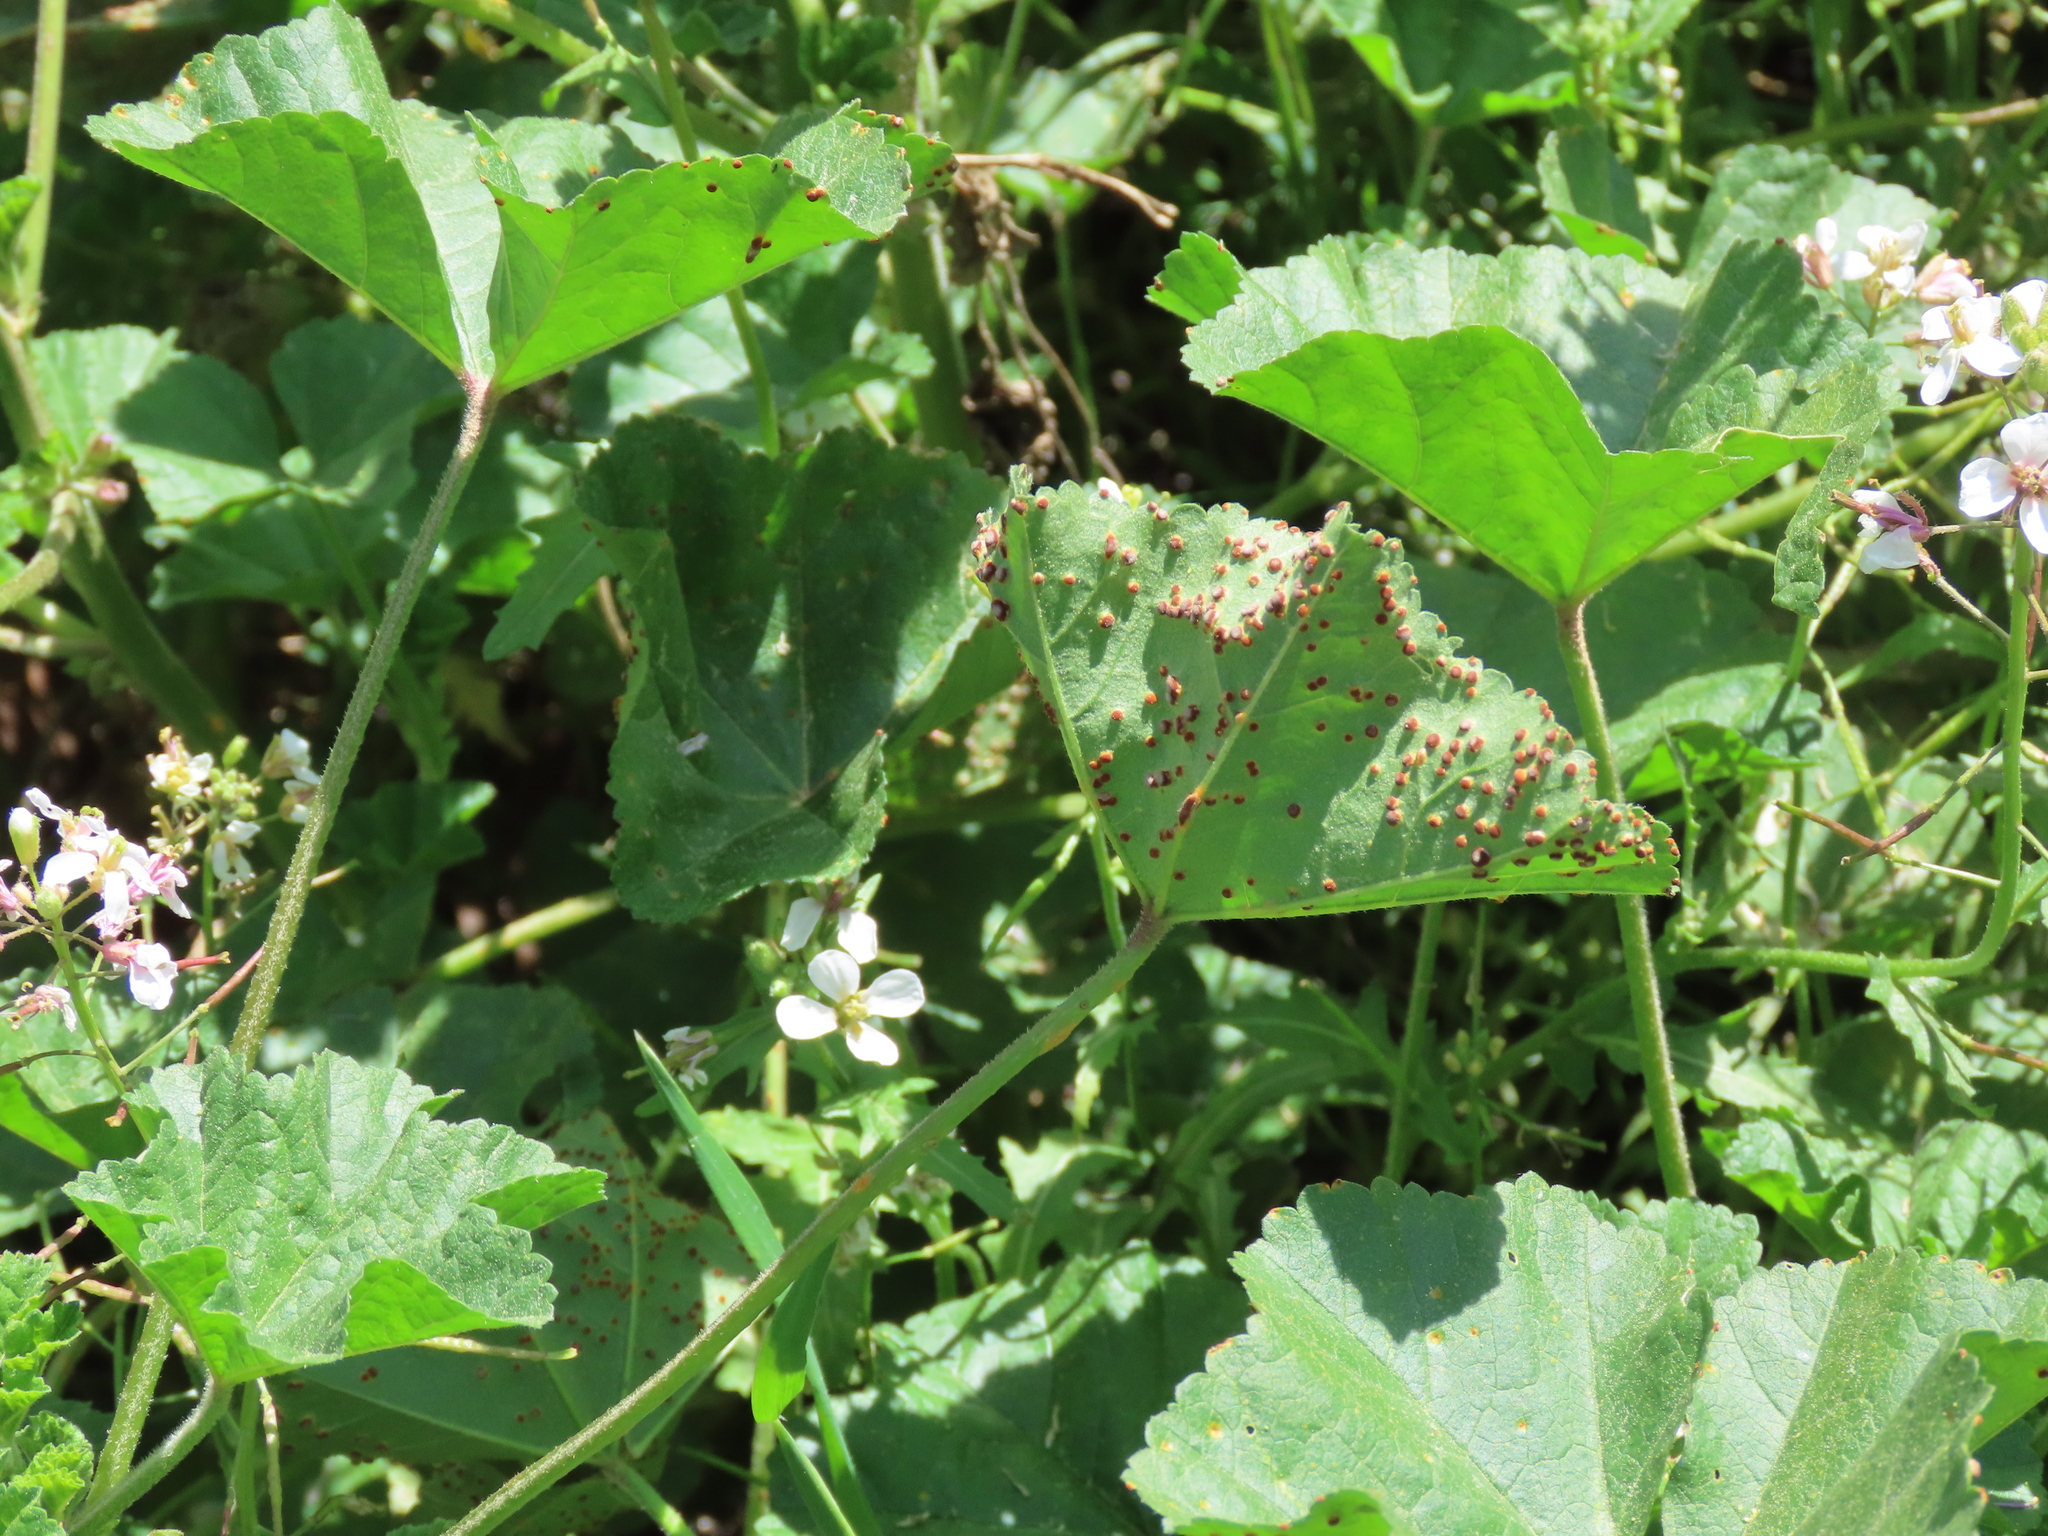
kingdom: Fungi
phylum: Basidiomycota
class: Pucciniomycetes
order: Pucciniales
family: Pucciniaceae
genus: Puccinia
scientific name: Puccinia malvacearum
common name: Hollyhock rust
